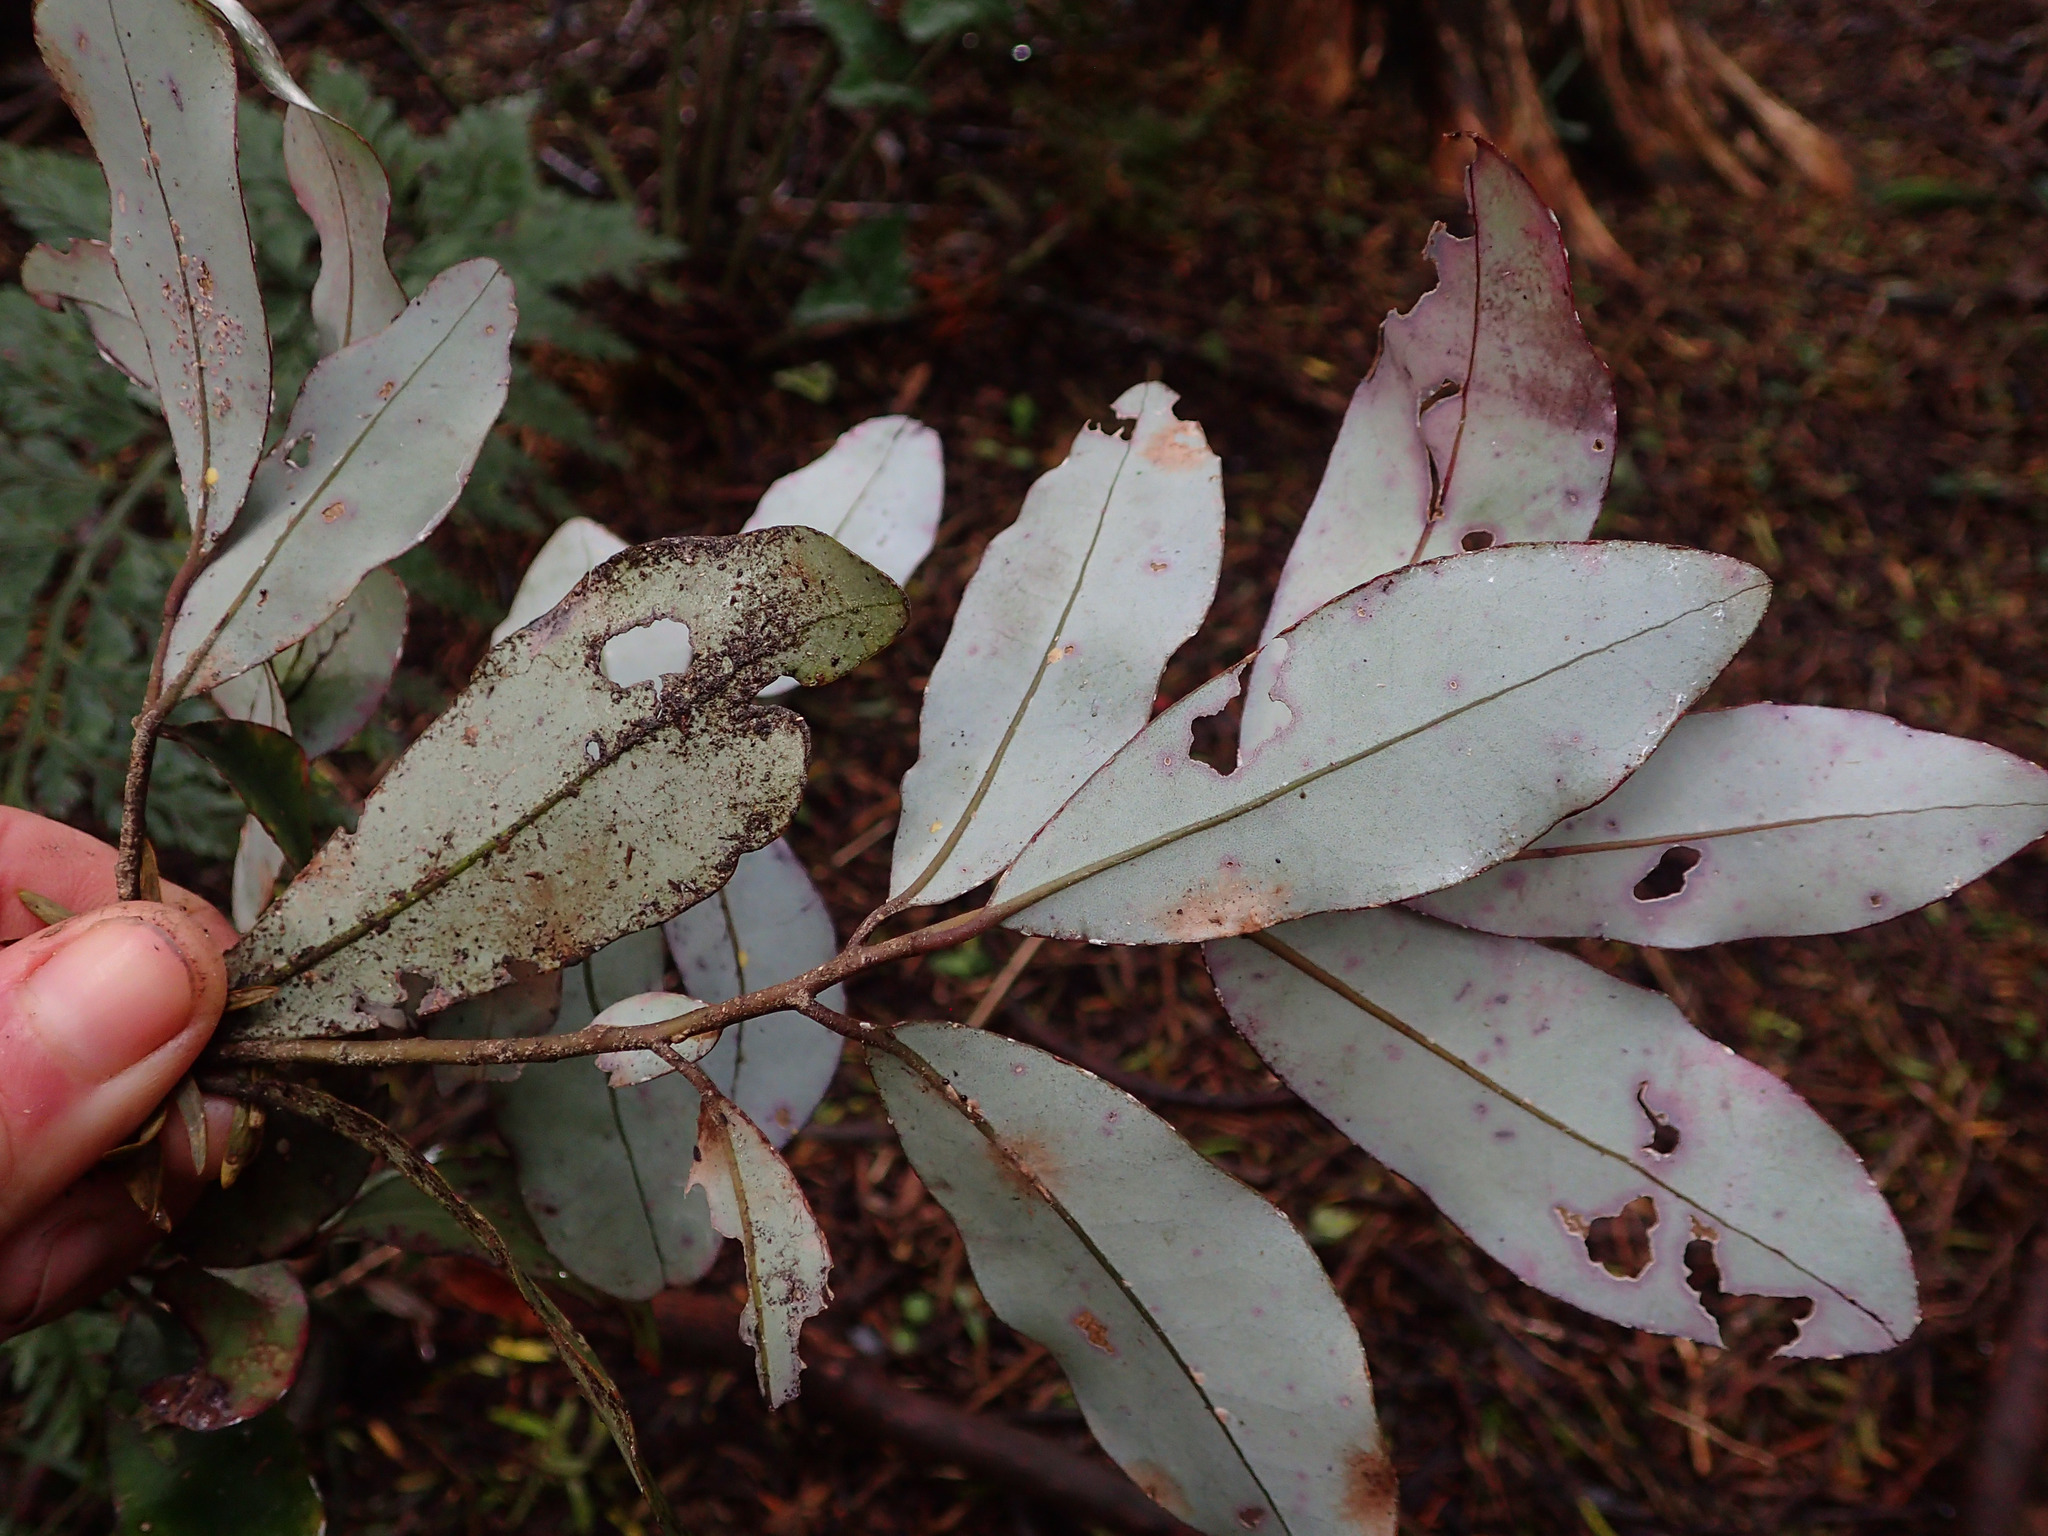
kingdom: Plantae
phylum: Tracheophyta
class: Magnoliopsida
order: Canellales
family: Winteraceae
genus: Pseudowintera
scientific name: Pseudowintera colorata
